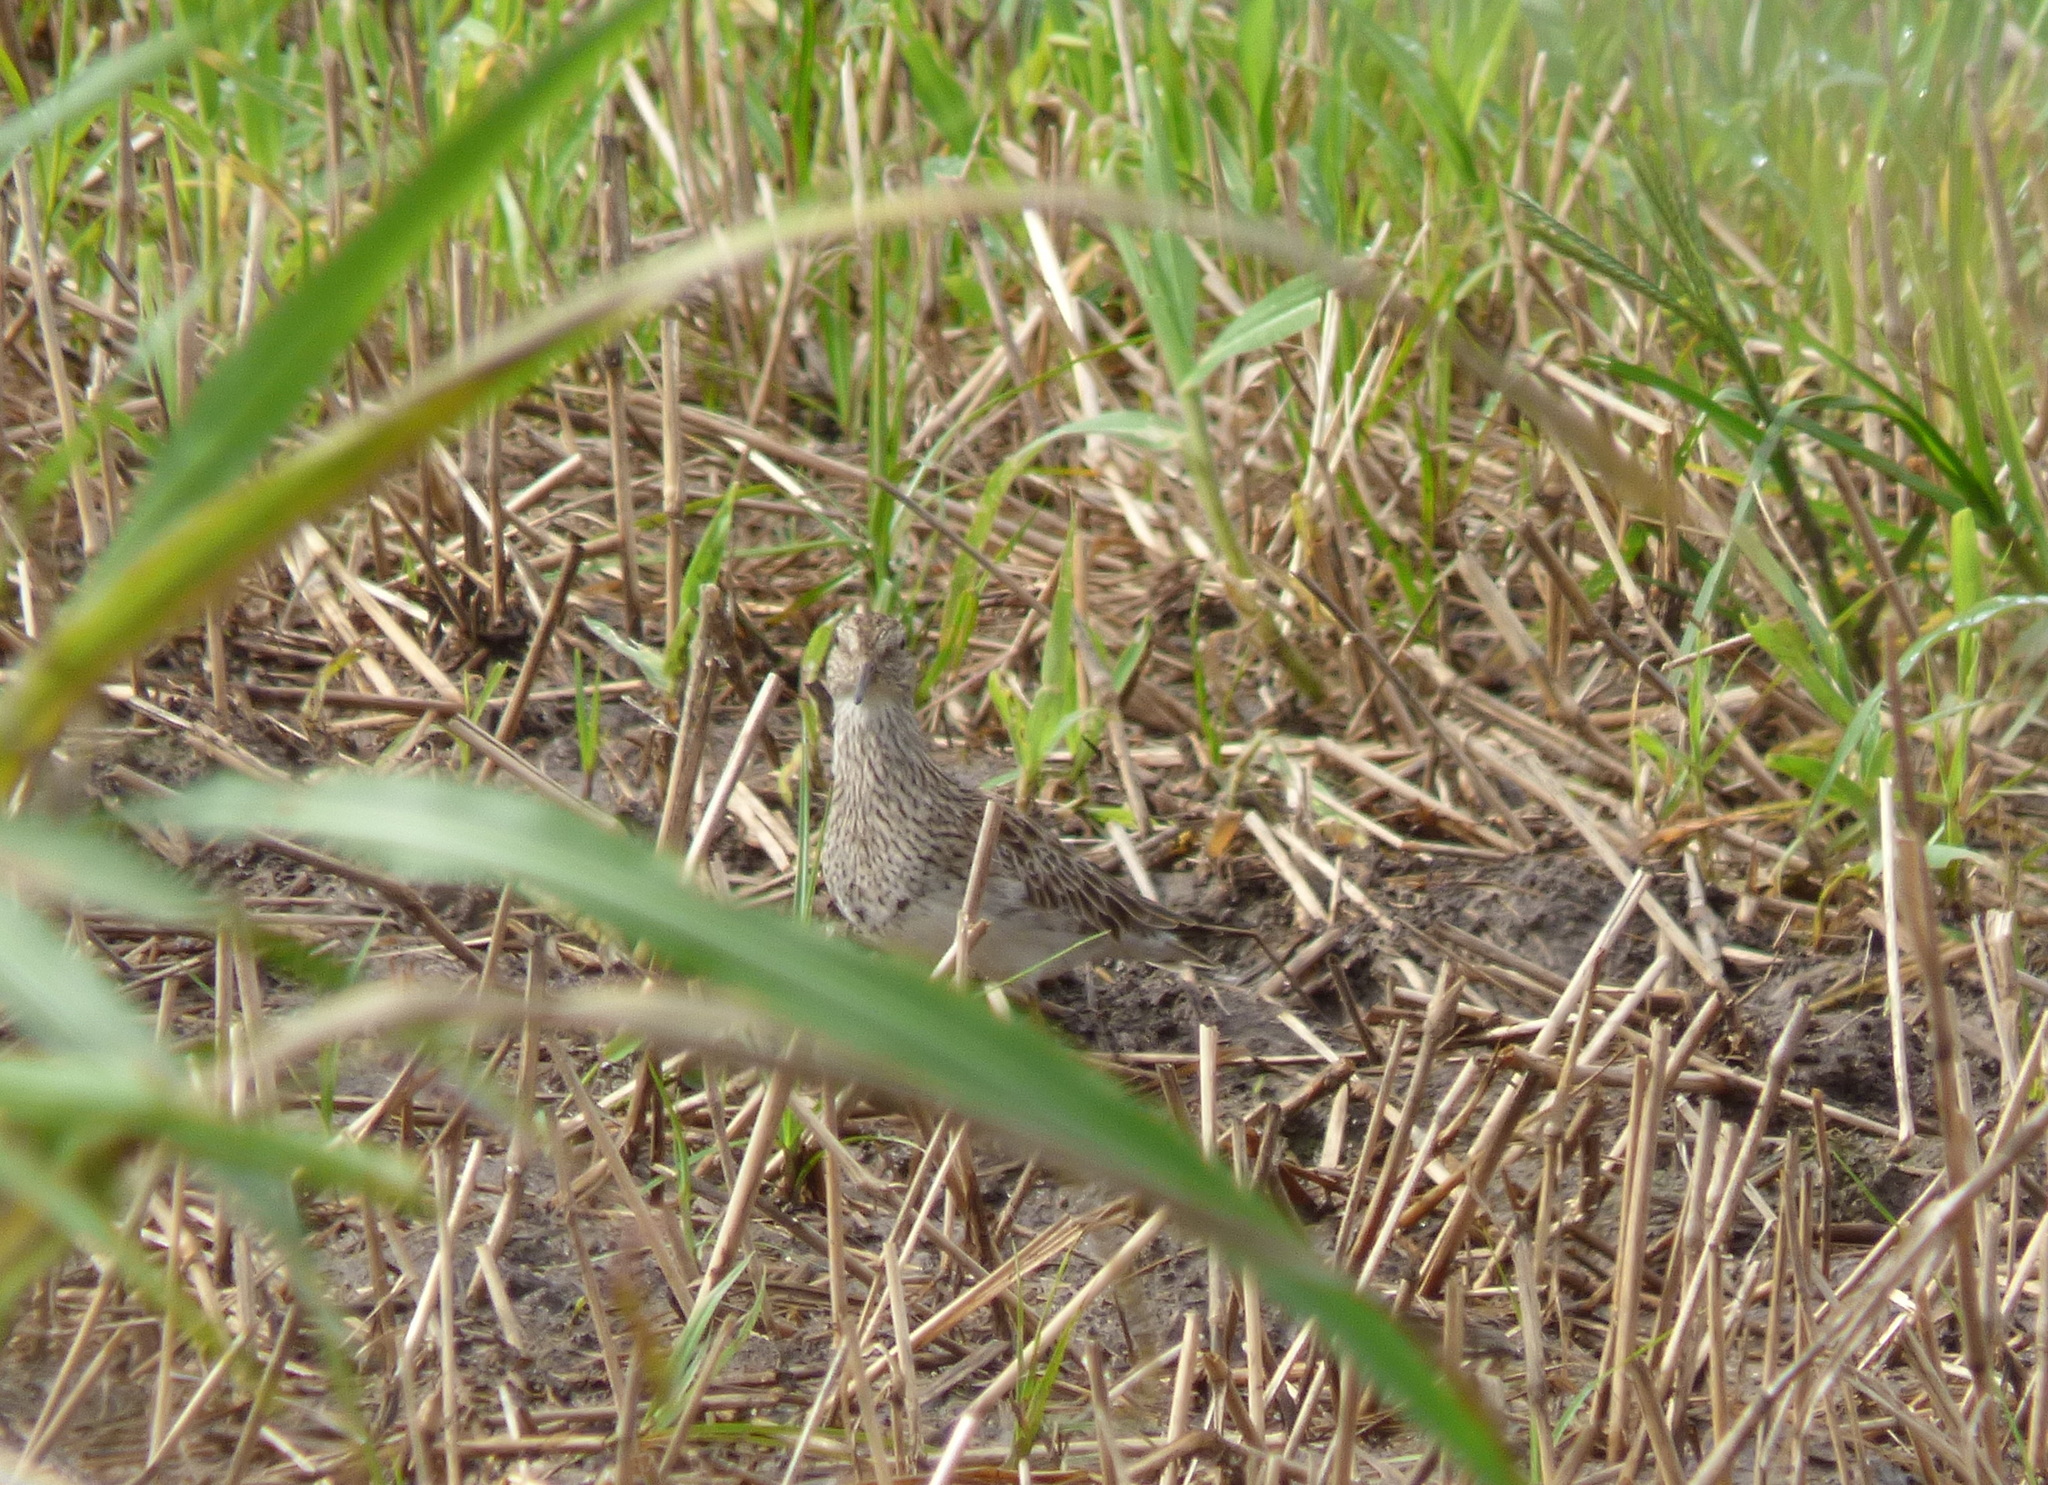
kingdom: Animalia
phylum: Chordata
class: Aves
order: Charadriiformes
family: Scolopacidae
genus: Calidris
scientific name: Calidris melanotos
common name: Pectoral sandpiper
